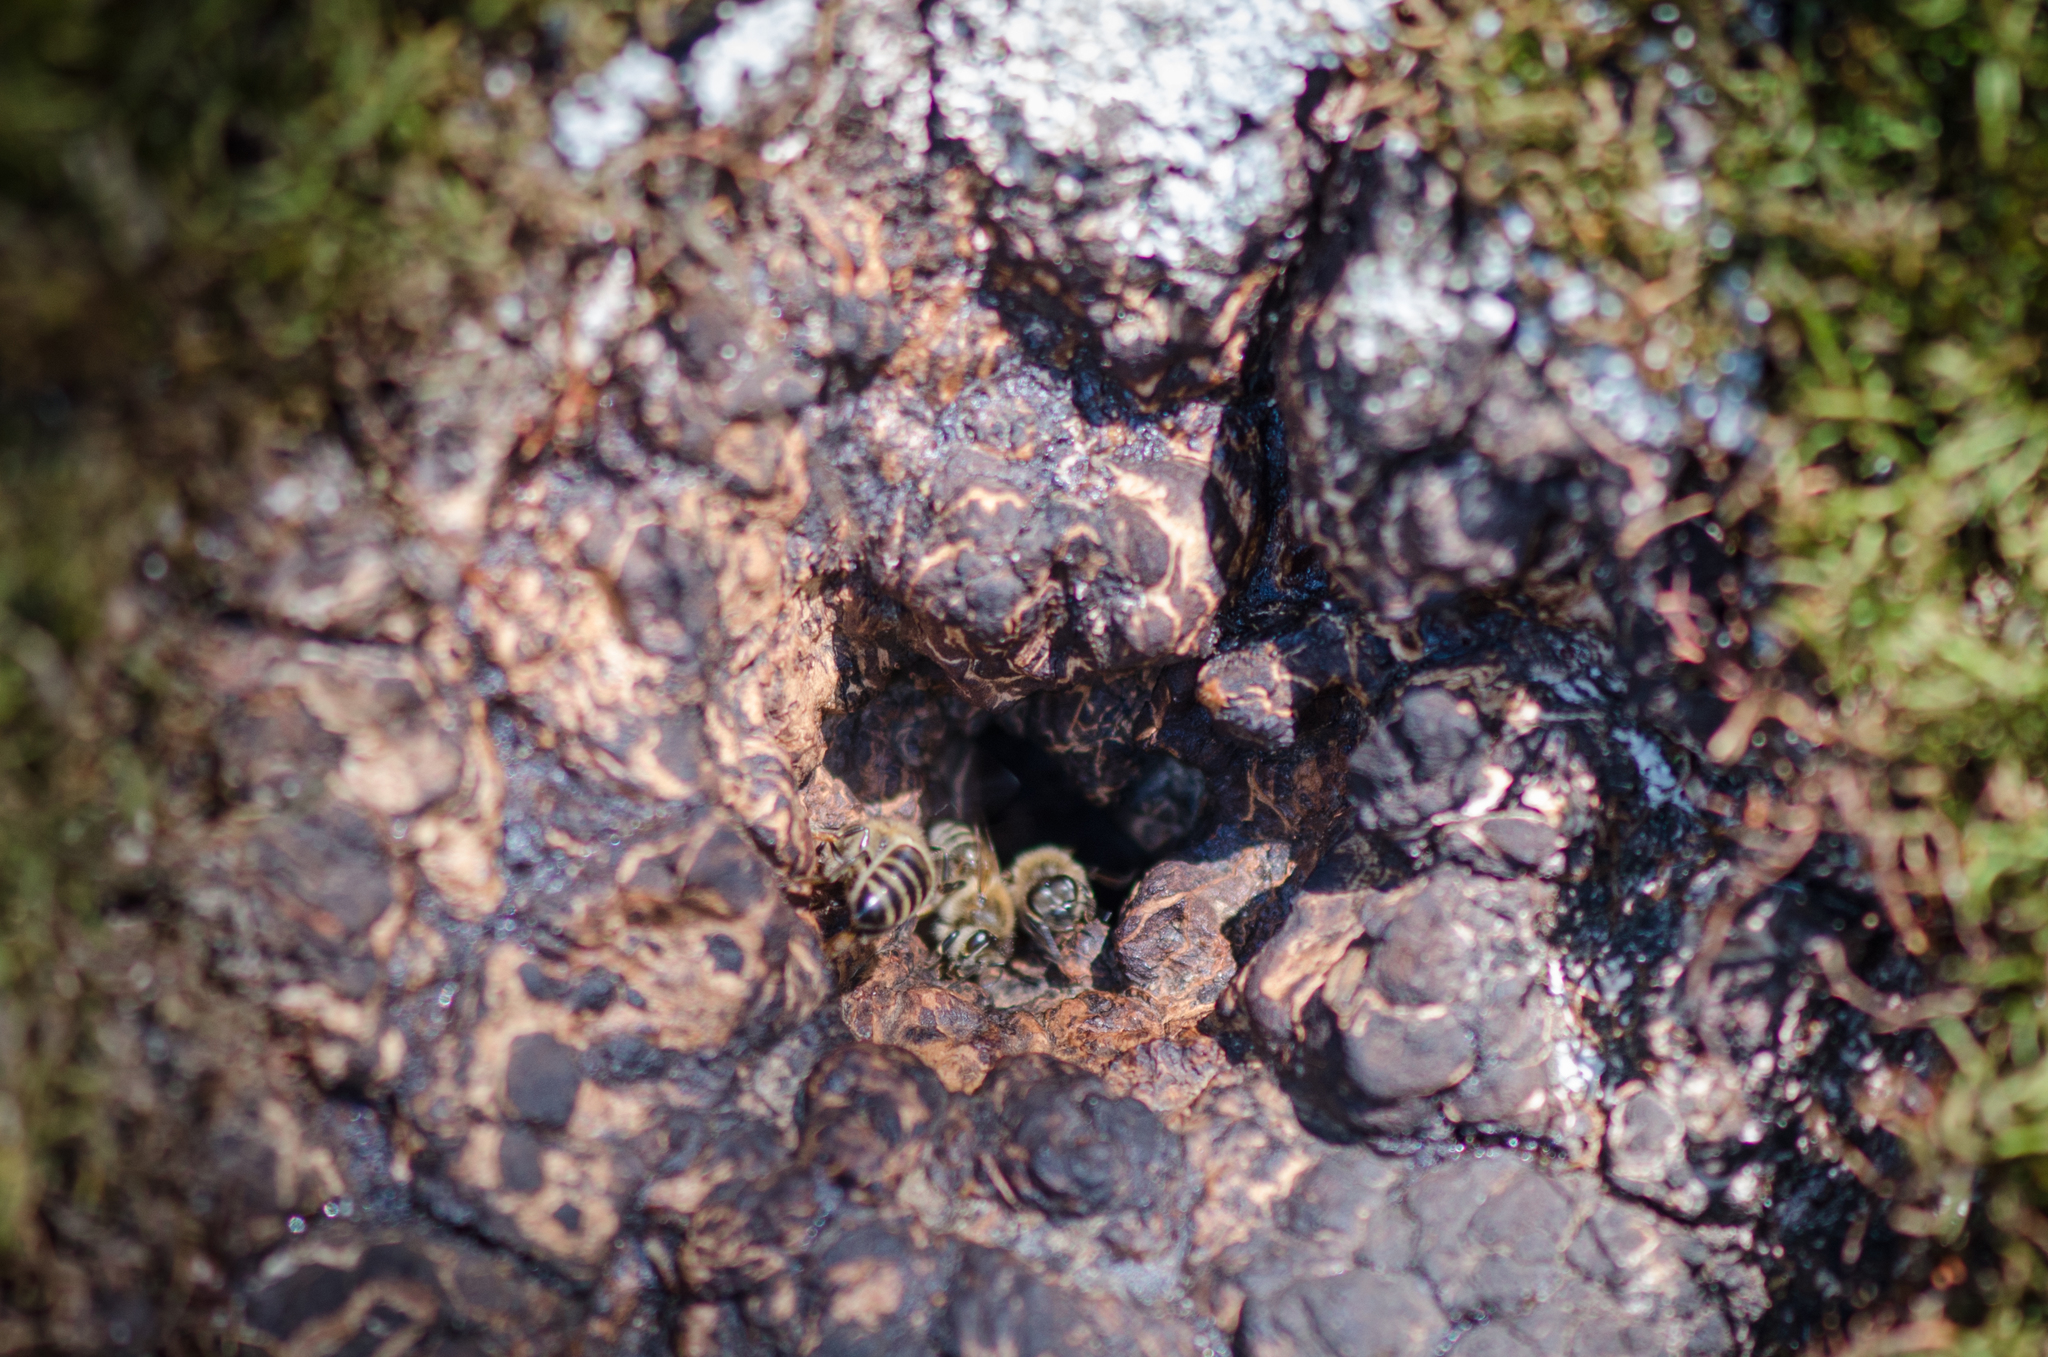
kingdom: Animalia
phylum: Arthropoda
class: Insecta
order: Hymenoptera
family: Apidae
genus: Apis
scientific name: Apis mellifera
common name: Honey bee
